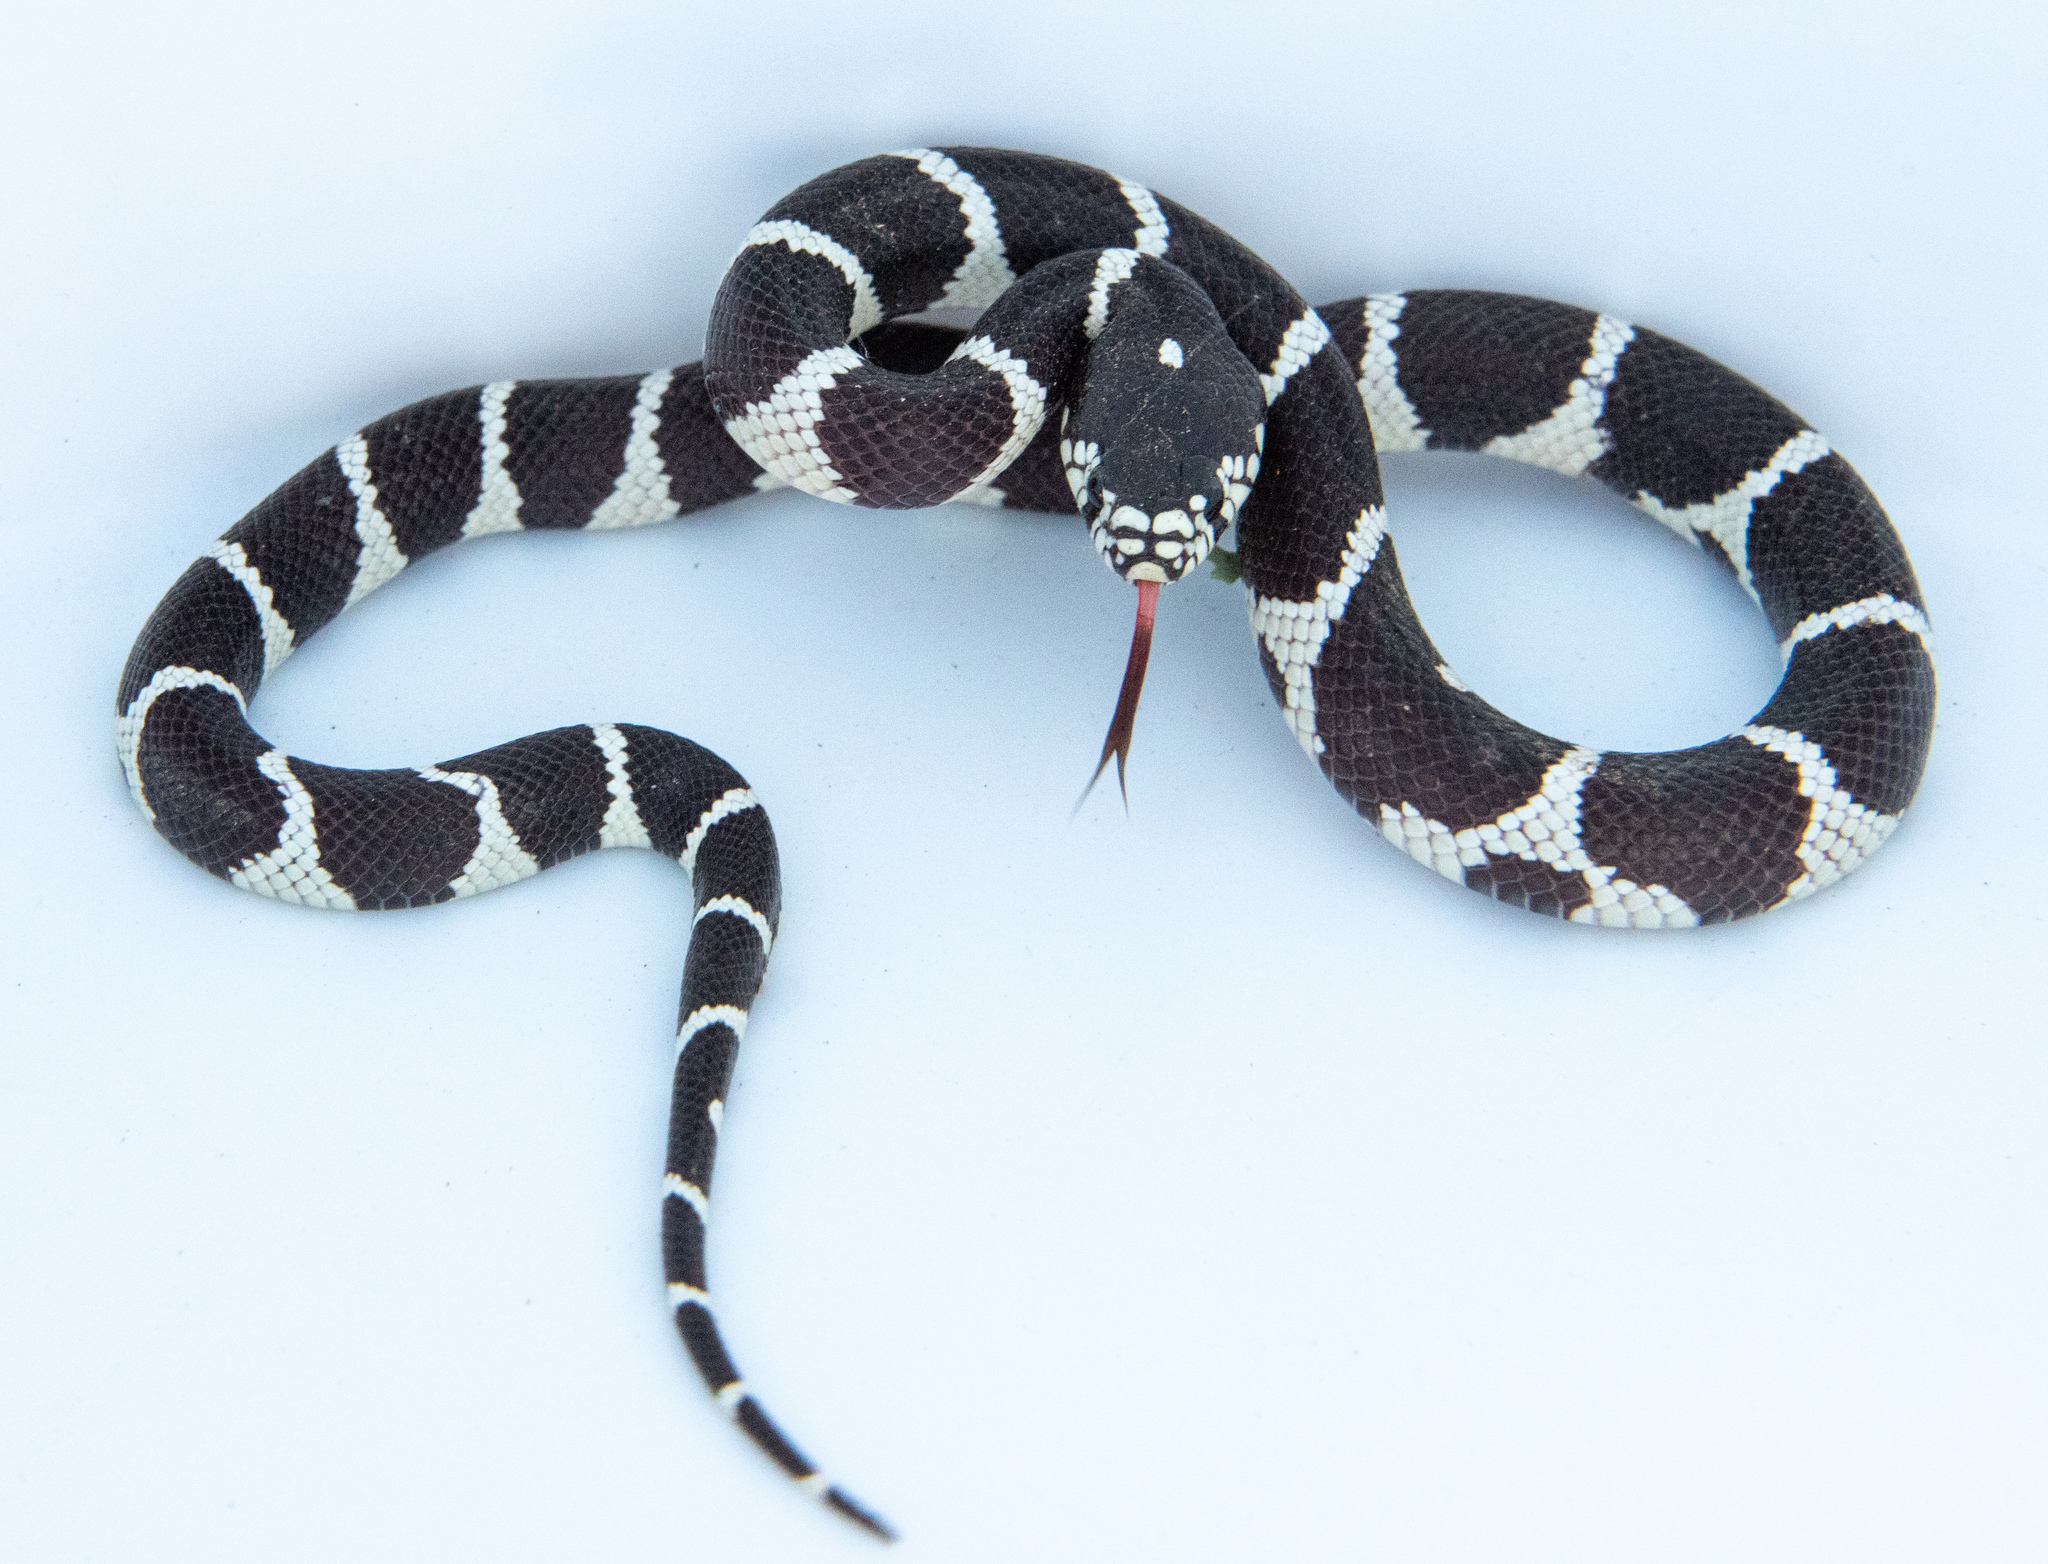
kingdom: Animalia
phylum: Chordata
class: Squamata
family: Colubridae
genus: Lampropeltis
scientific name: Lampropeltis californiae
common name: California kingsnake
